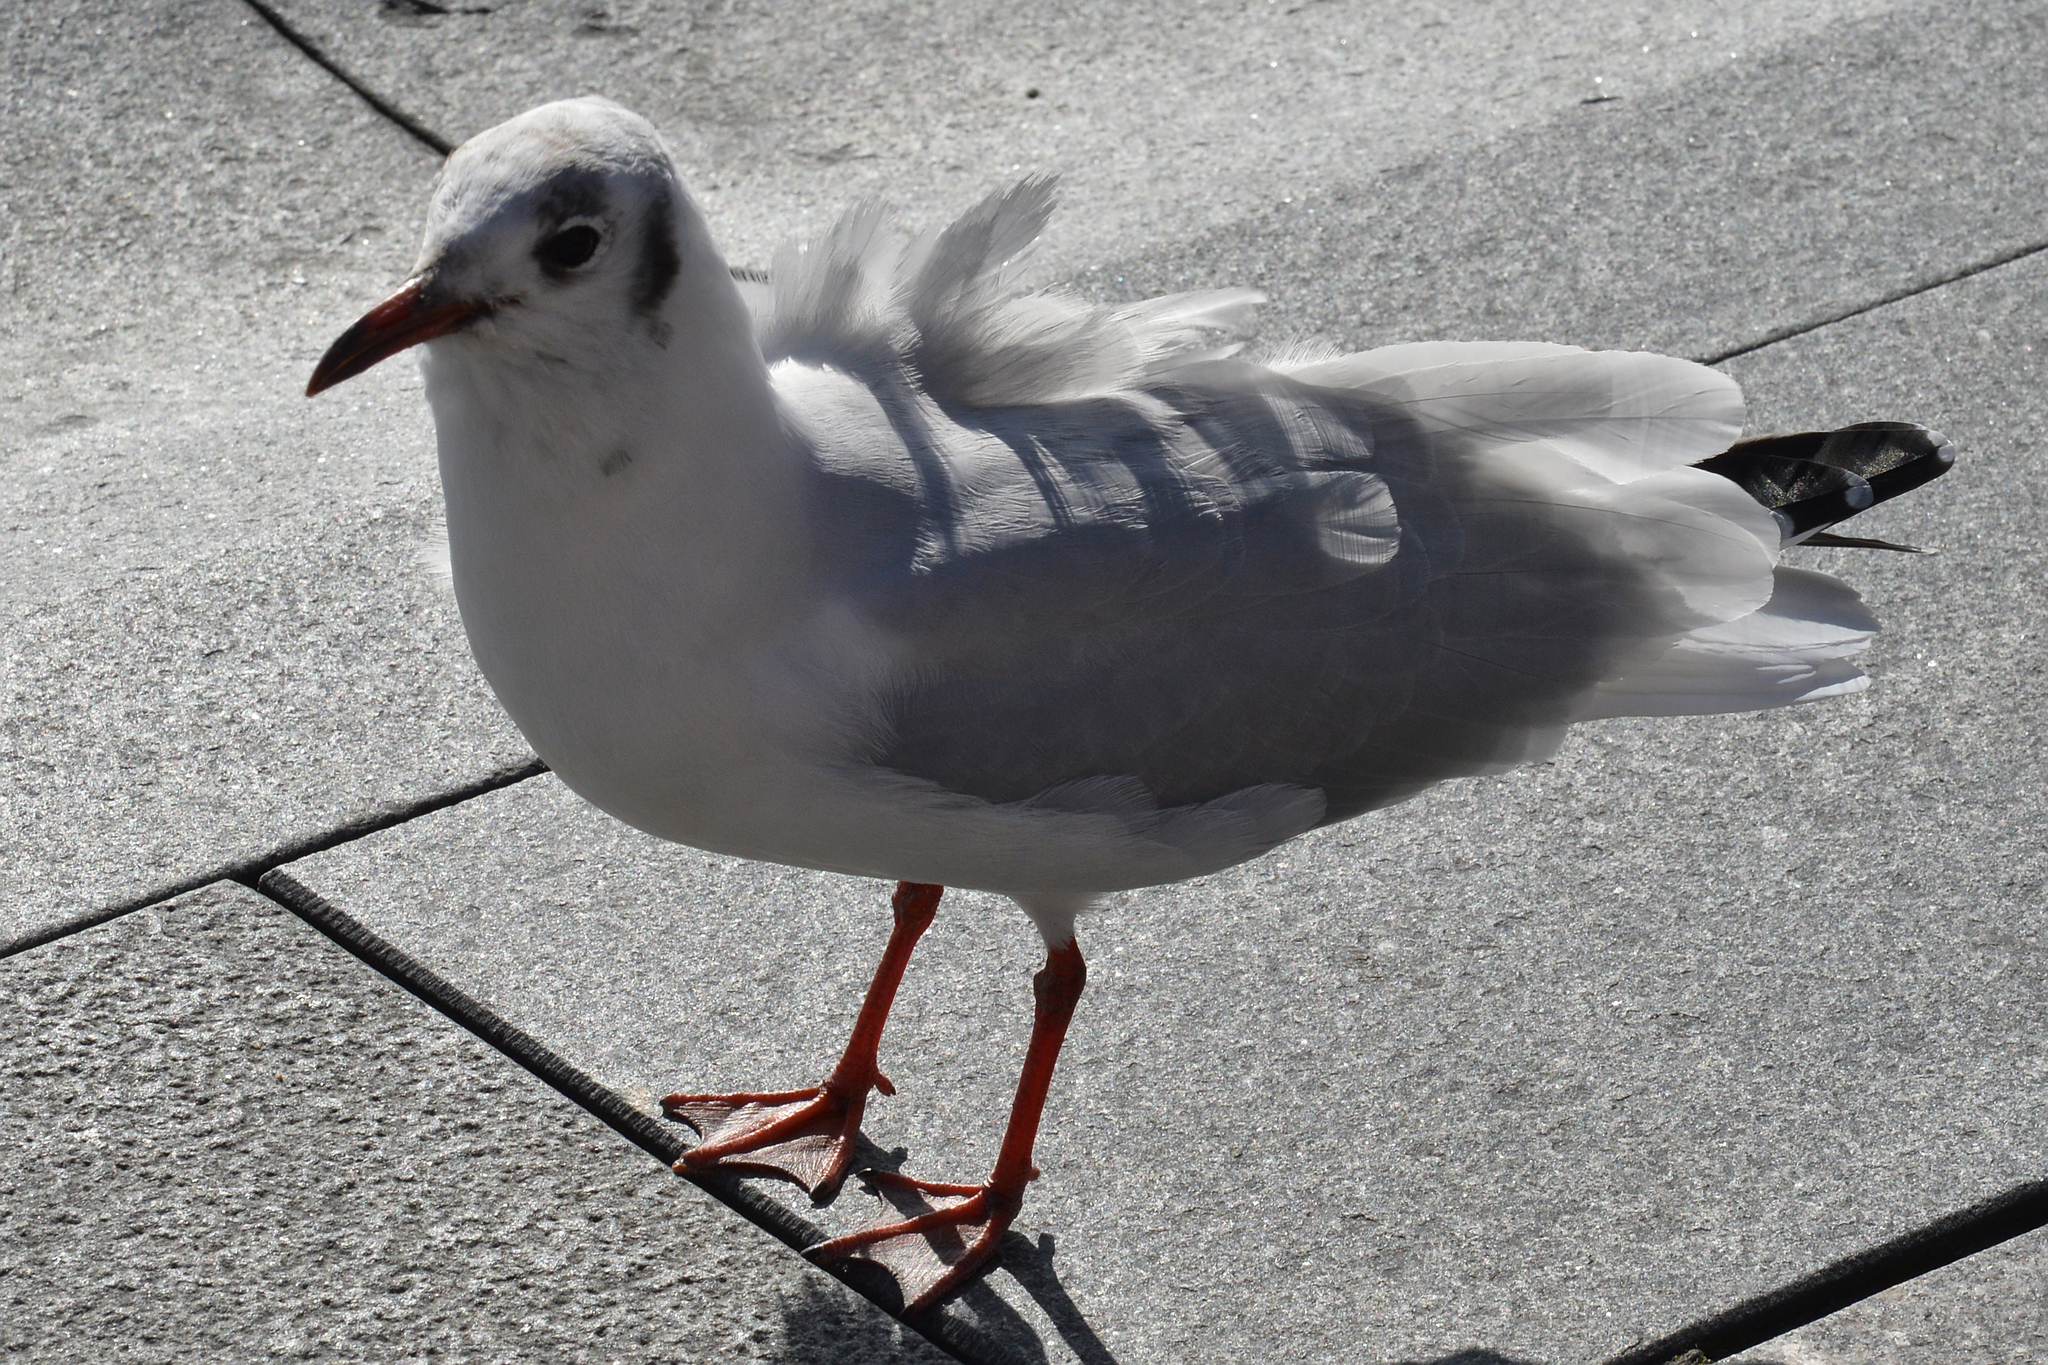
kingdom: Animalia
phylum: Chordata
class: Aves
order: Charadriiformes
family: Laridae
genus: Chroicocephalus
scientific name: Chroicocephalus ridibundus
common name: Black-headed gull
